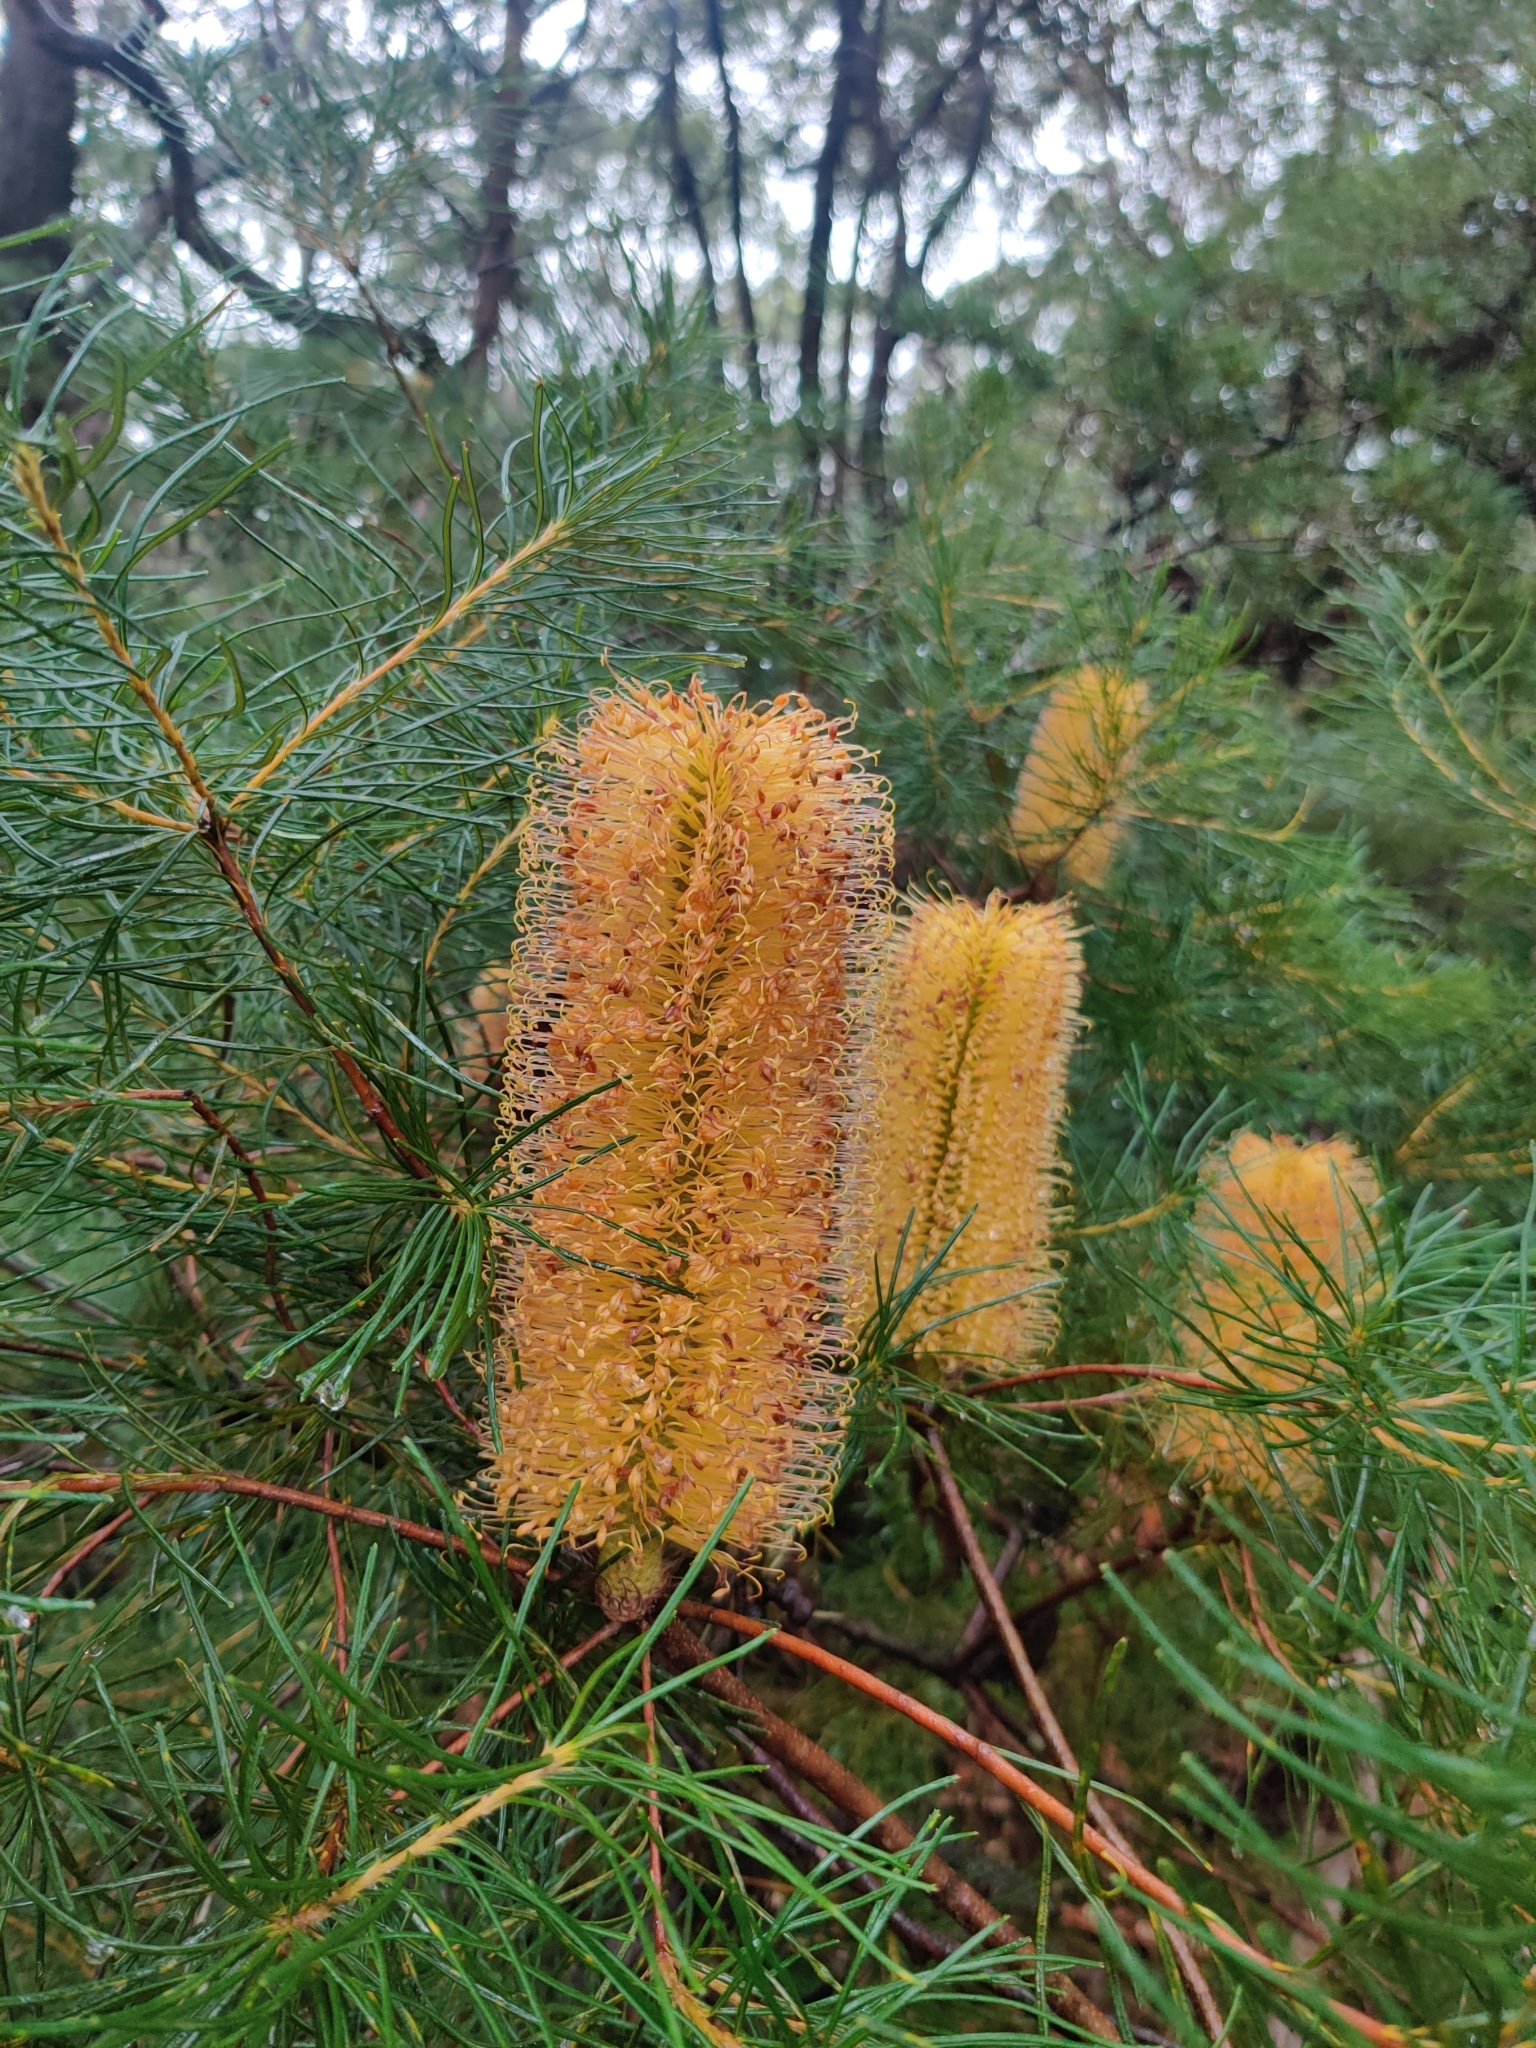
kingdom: Plantae
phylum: Tracheophyta
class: Magnoliopsida
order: Proteales
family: Proteaceae
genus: Banksia
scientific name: Banksia spinulosa
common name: Hairpin banksia
